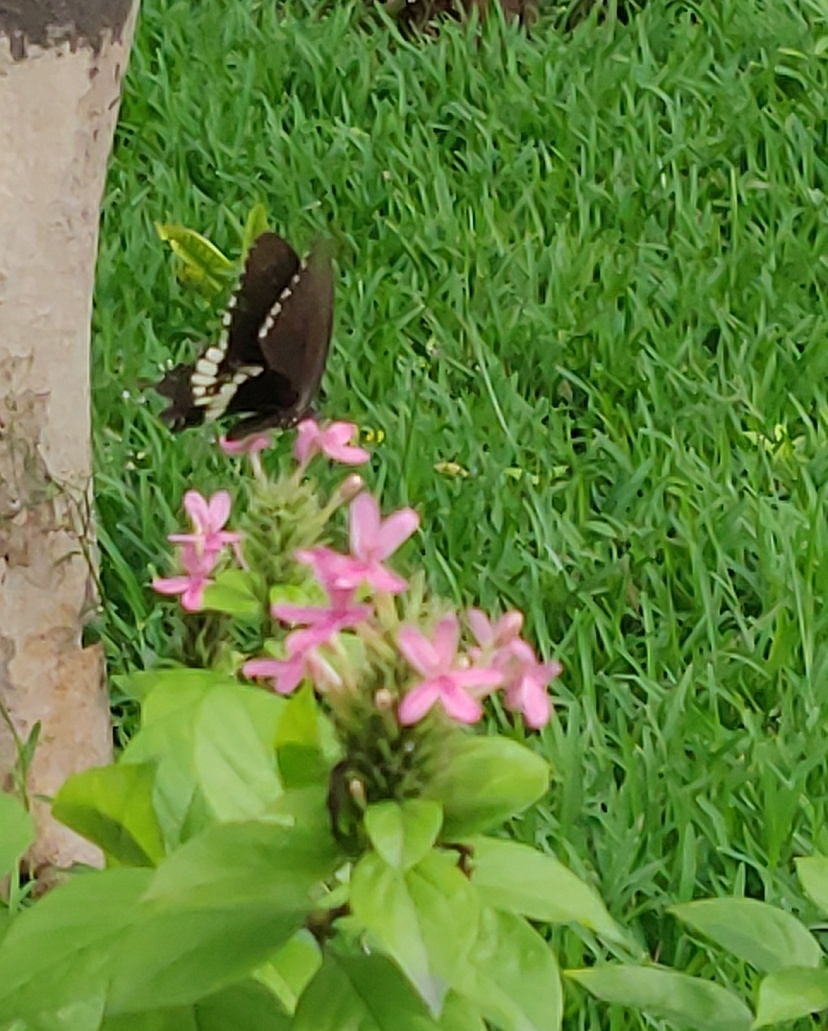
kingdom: Animalia
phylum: Arthropoda
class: Insecta
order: Lepidoptera
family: Papilionidae
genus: Papilio
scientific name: Papilio polytes
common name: Common mormon
